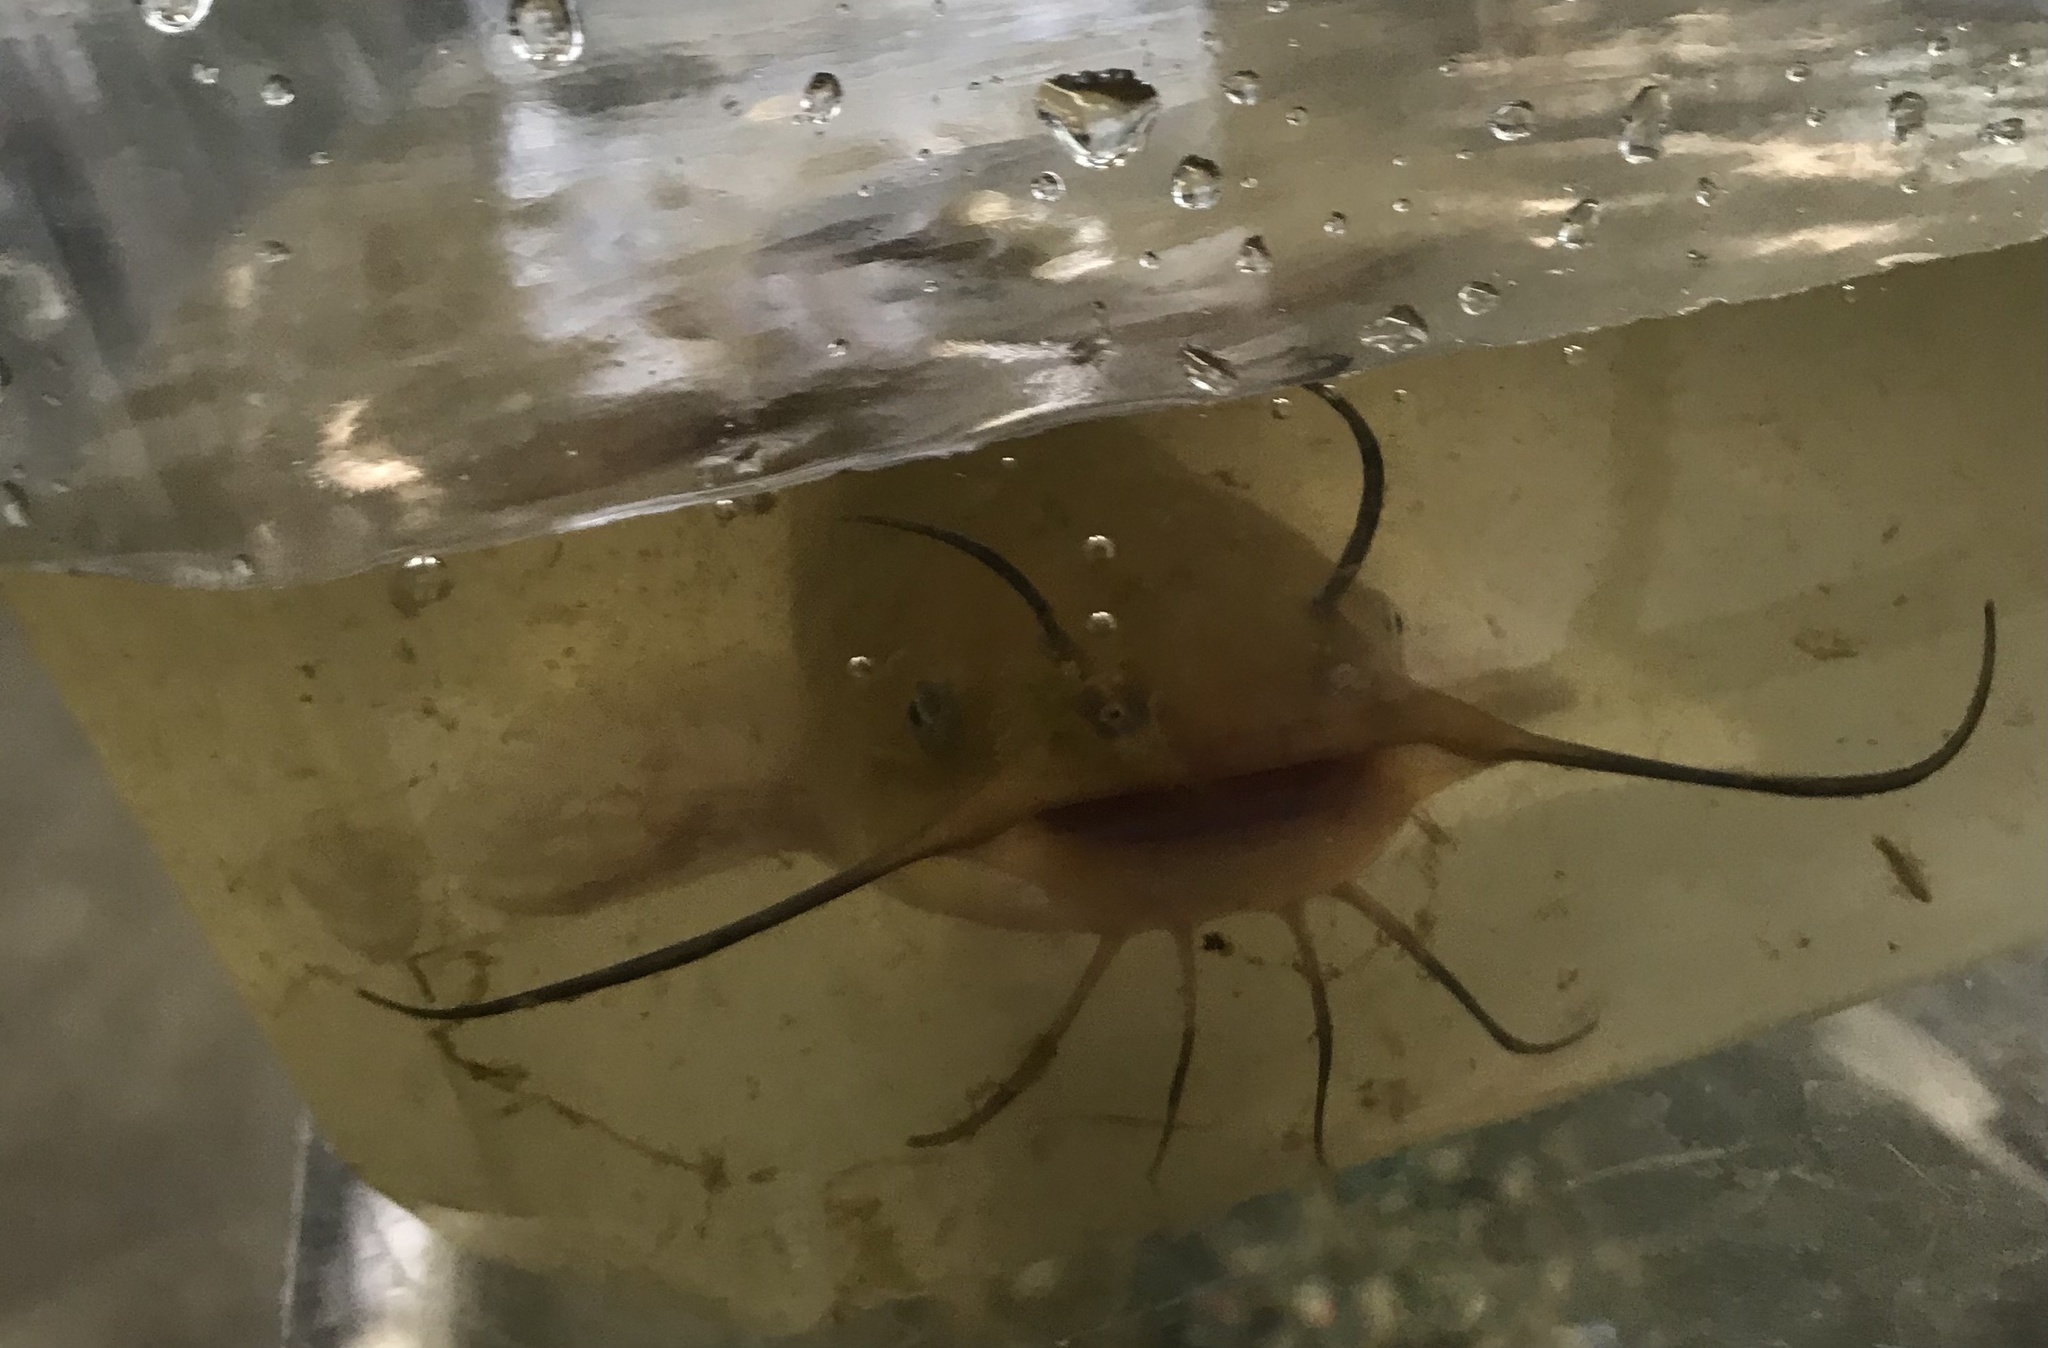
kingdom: Animalia
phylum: Chordata
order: Siluriformes
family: Ictaluridae
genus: Ameiurus
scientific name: Ameiurus nebulosus
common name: Brown bullhead
